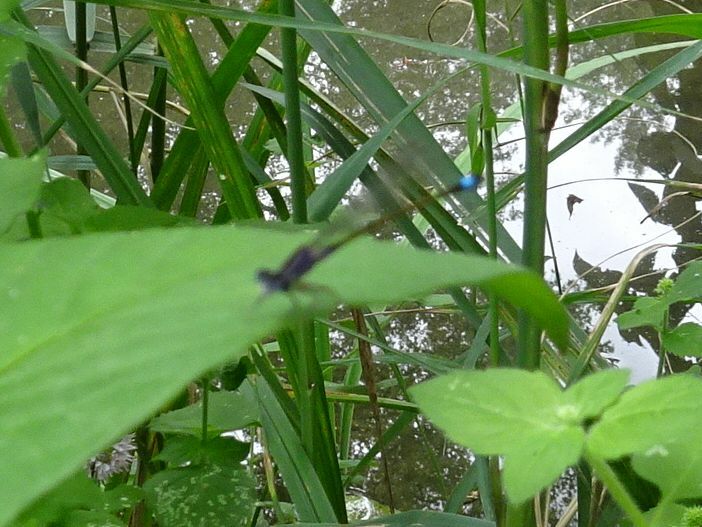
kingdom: Animalia
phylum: Arthropoda
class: Insecta
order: Odonata
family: Coenagrionidae
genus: Ischnura
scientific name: Ischnura elegans
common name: Blue-tailed damselfly
